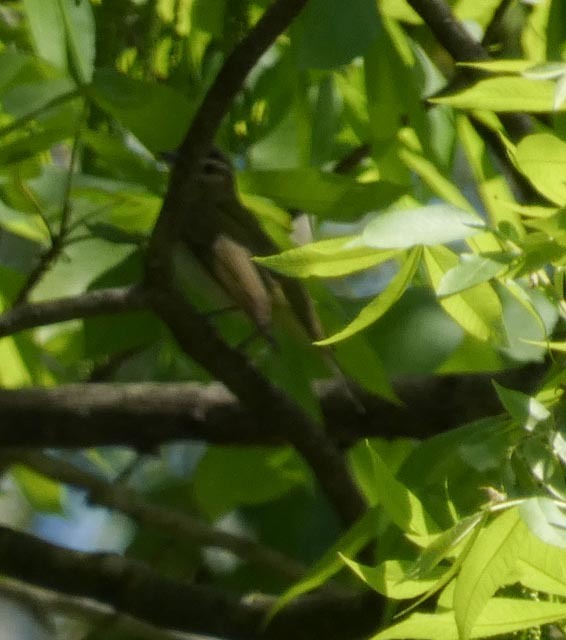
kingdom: Animalia
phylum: Chordata
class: Aves
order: Passeriformes
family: Vireonidae
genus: Vireo
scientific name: Vireo olivaceus
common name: Red-eyed vireo
